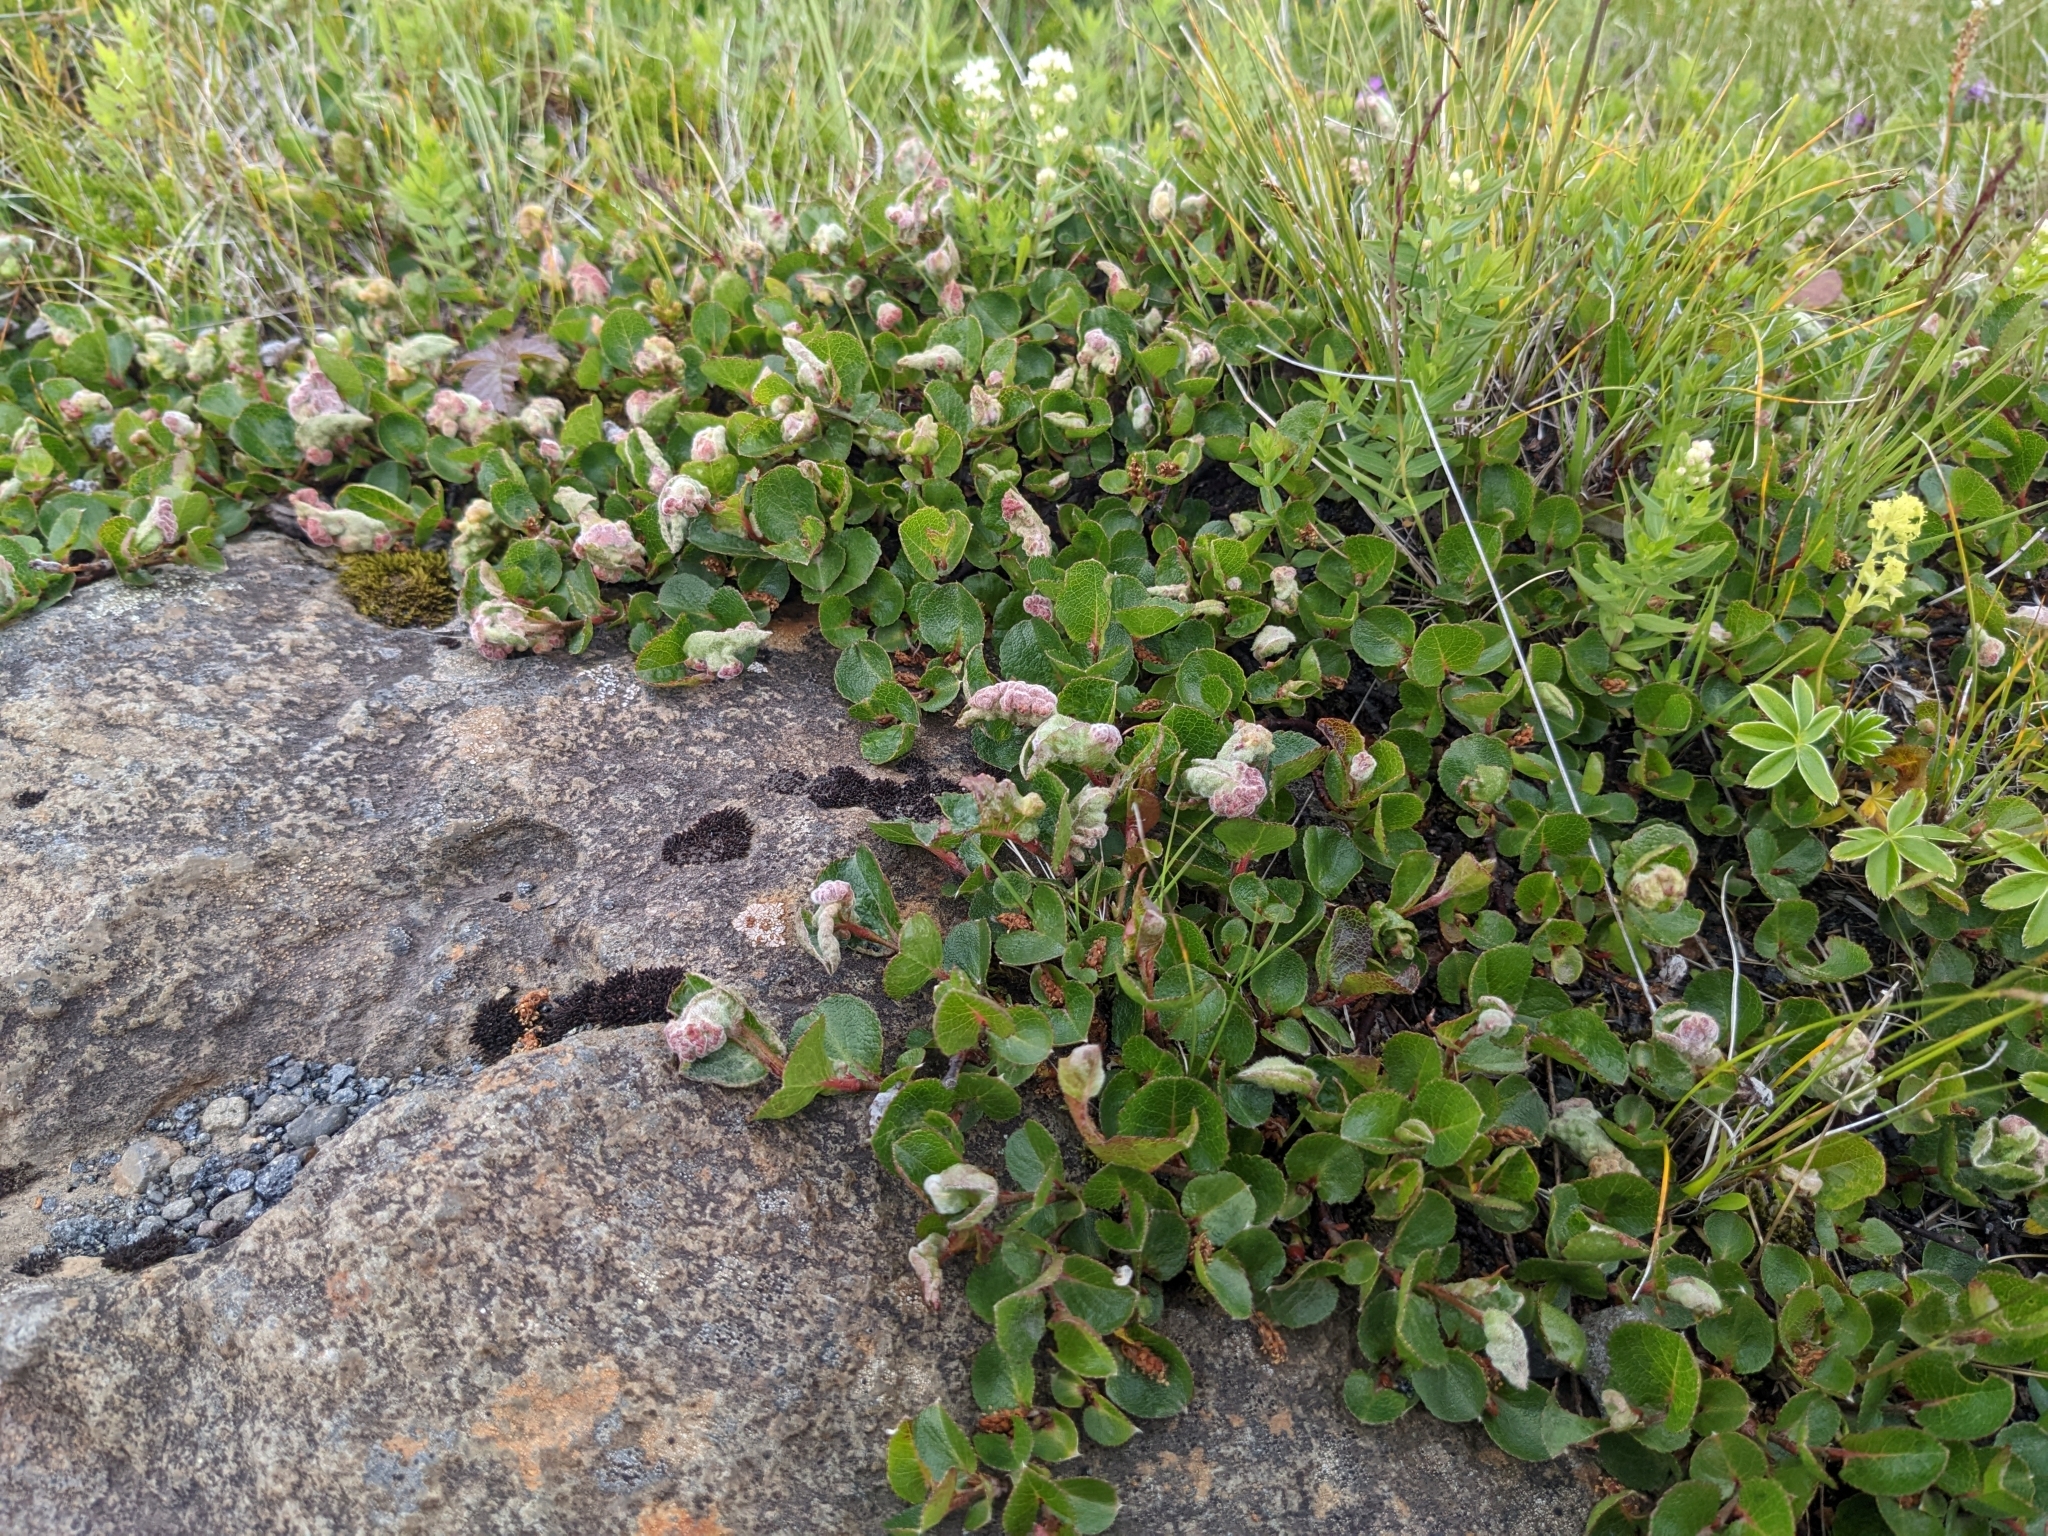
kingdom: Plantae
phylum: Tracheophyta
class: Magnoliopsida
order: Malpighiales
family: Salicaceae
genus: Salix
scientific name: Salix herbacea
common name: Dwarf willow
